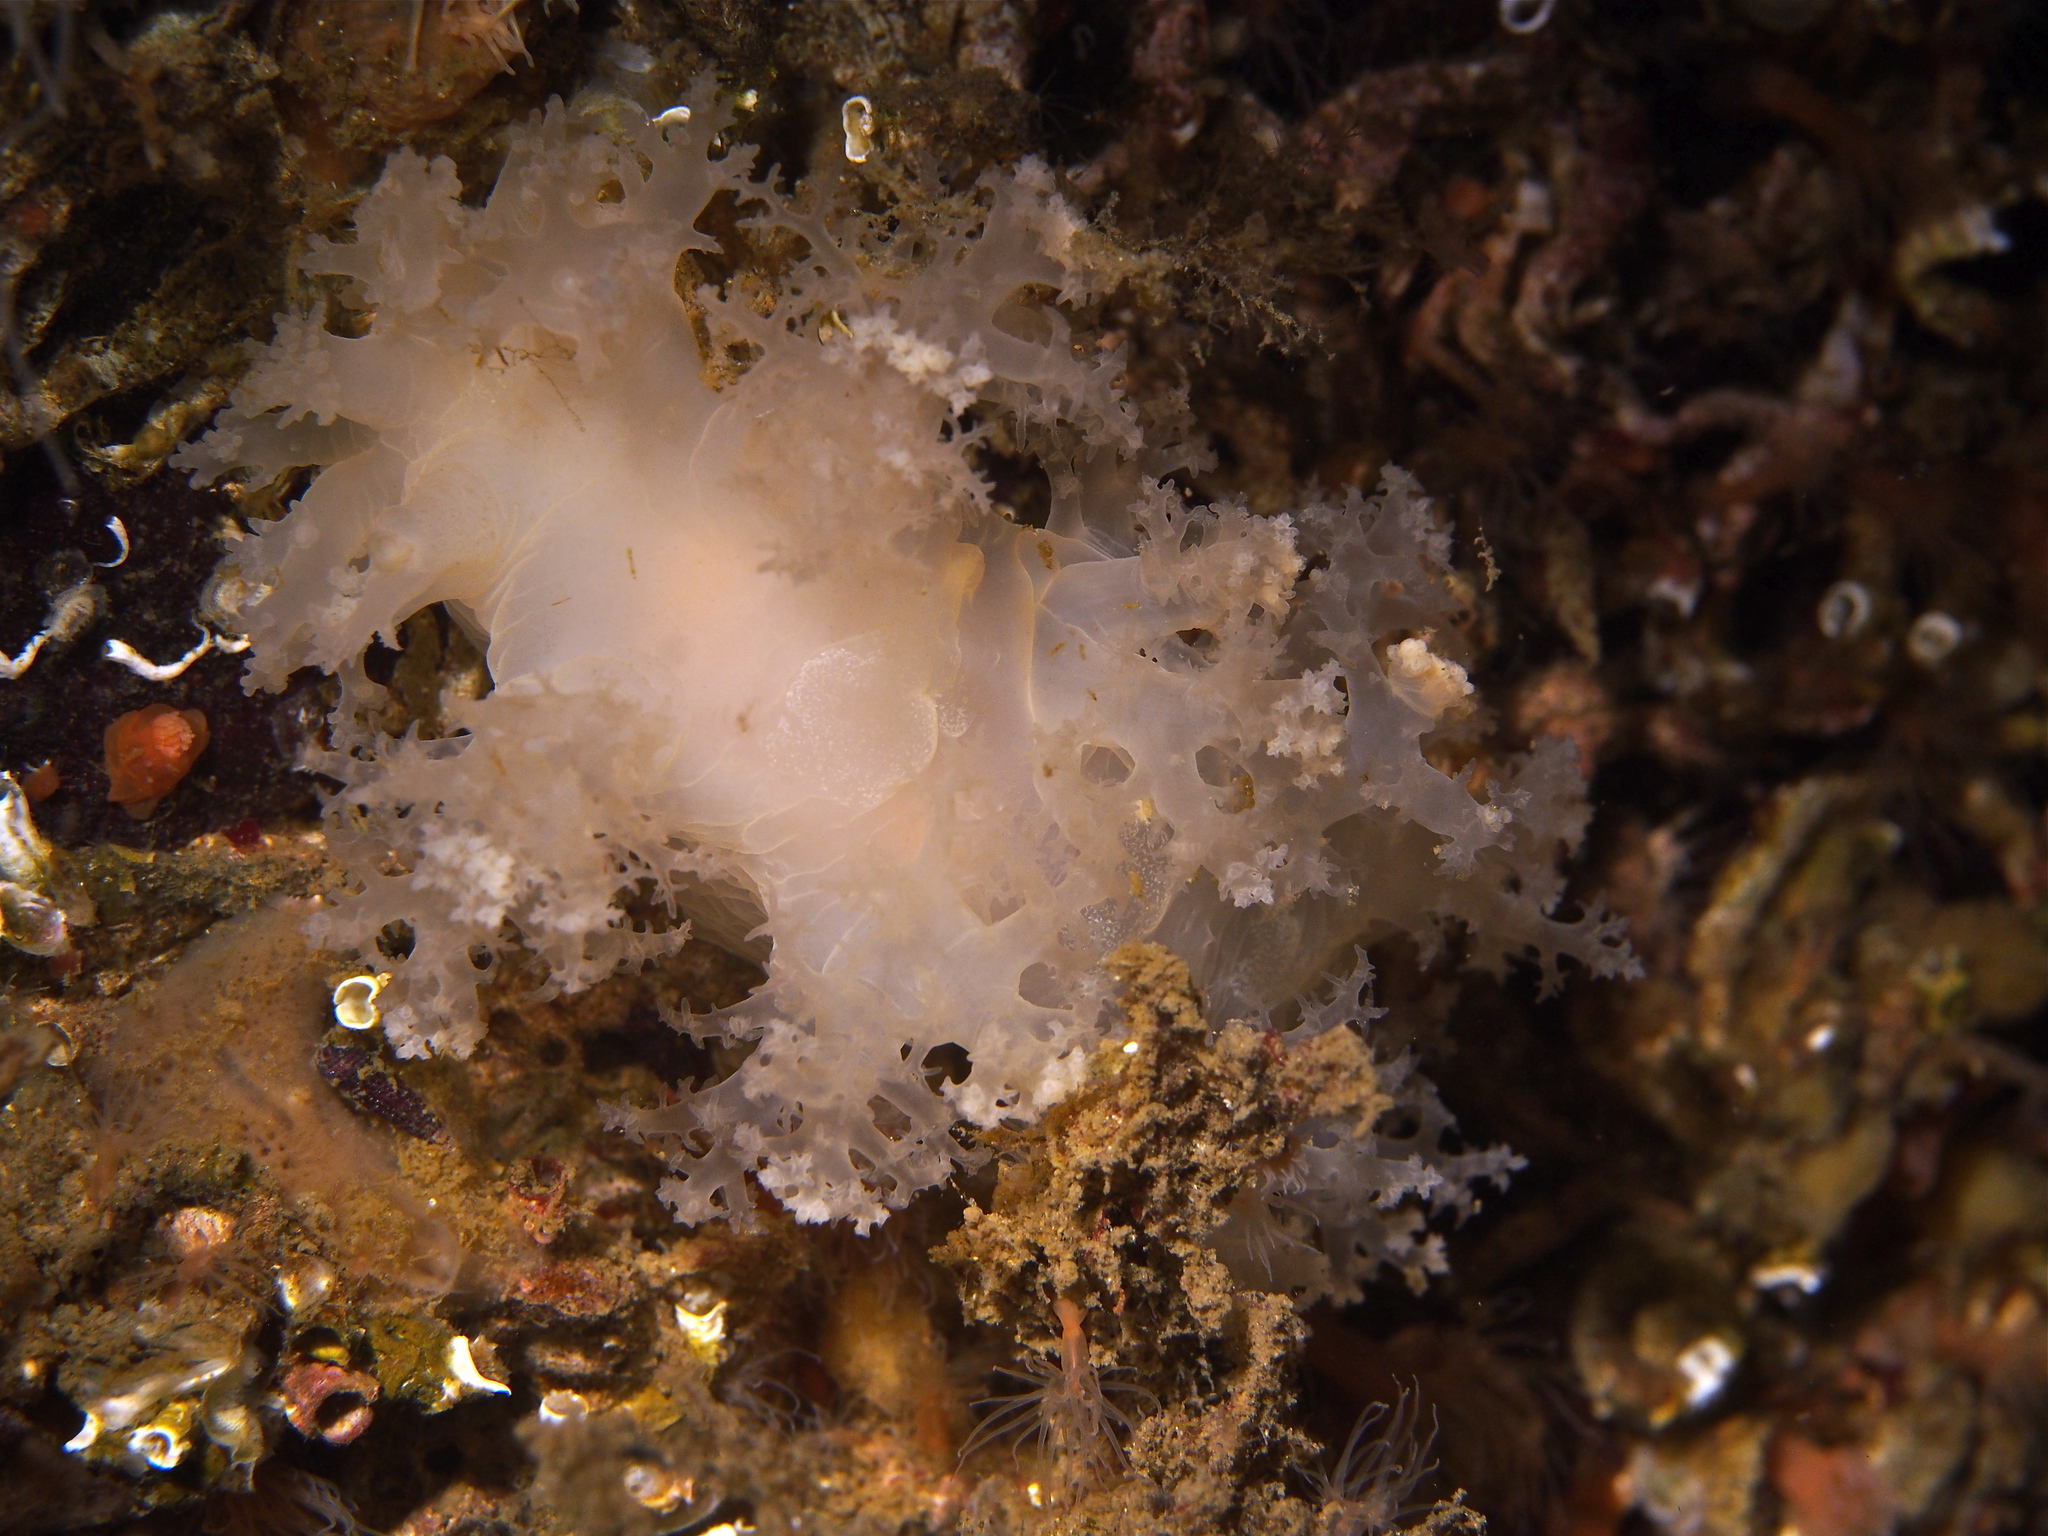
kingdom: Animalia
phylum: Mollusca
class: Gastropoda
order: Nudibranchia
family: Dendronotidae
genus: Dendronotus
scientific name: Dendronotus lacteus
